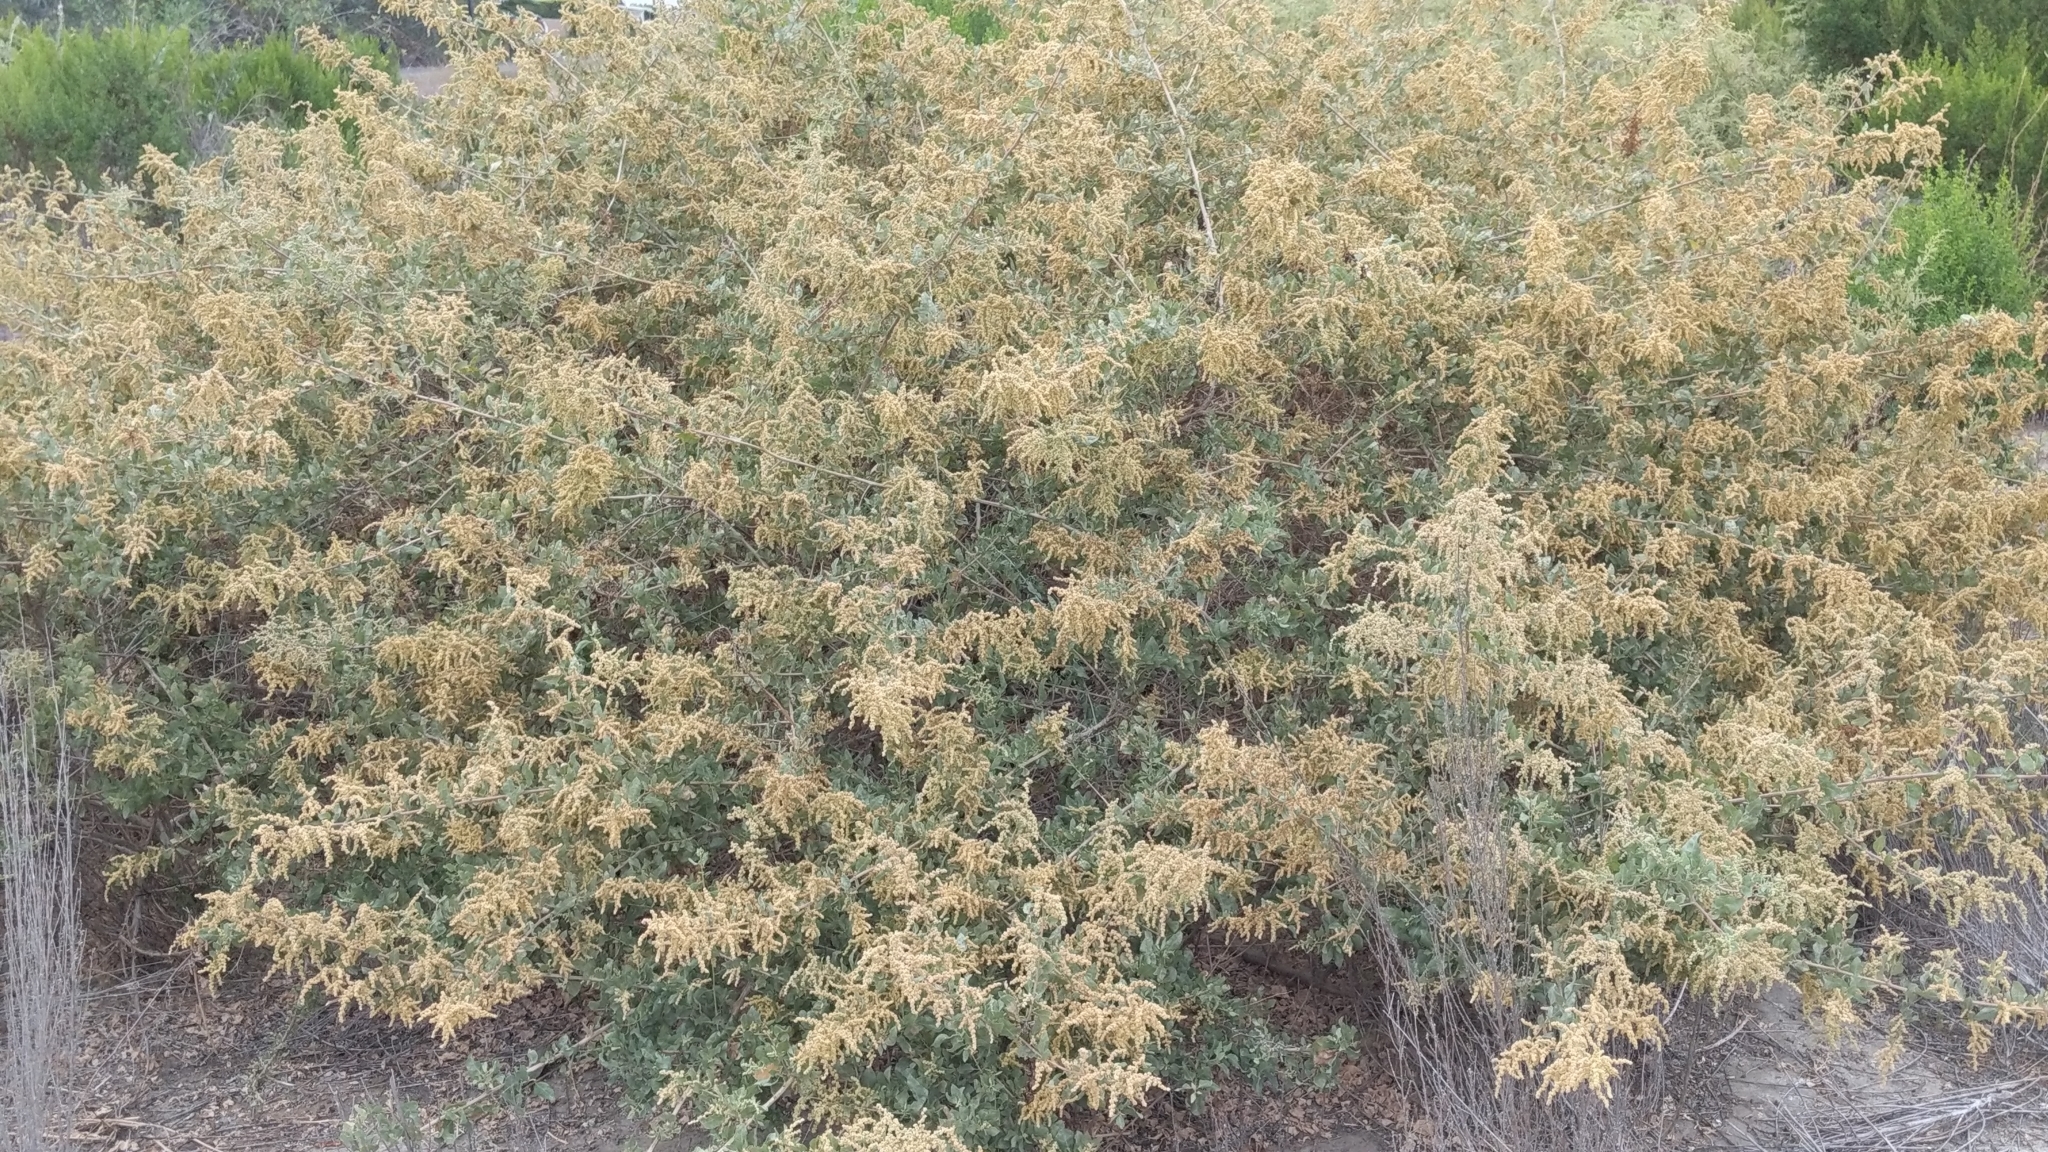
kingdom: Plantae
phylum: Tracheophyta
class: Magnoliopsida
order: Caryophyllales
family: Amaranthaceae
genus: Atriplex
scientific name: Atriplex lentiformis
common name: Big saltbush
